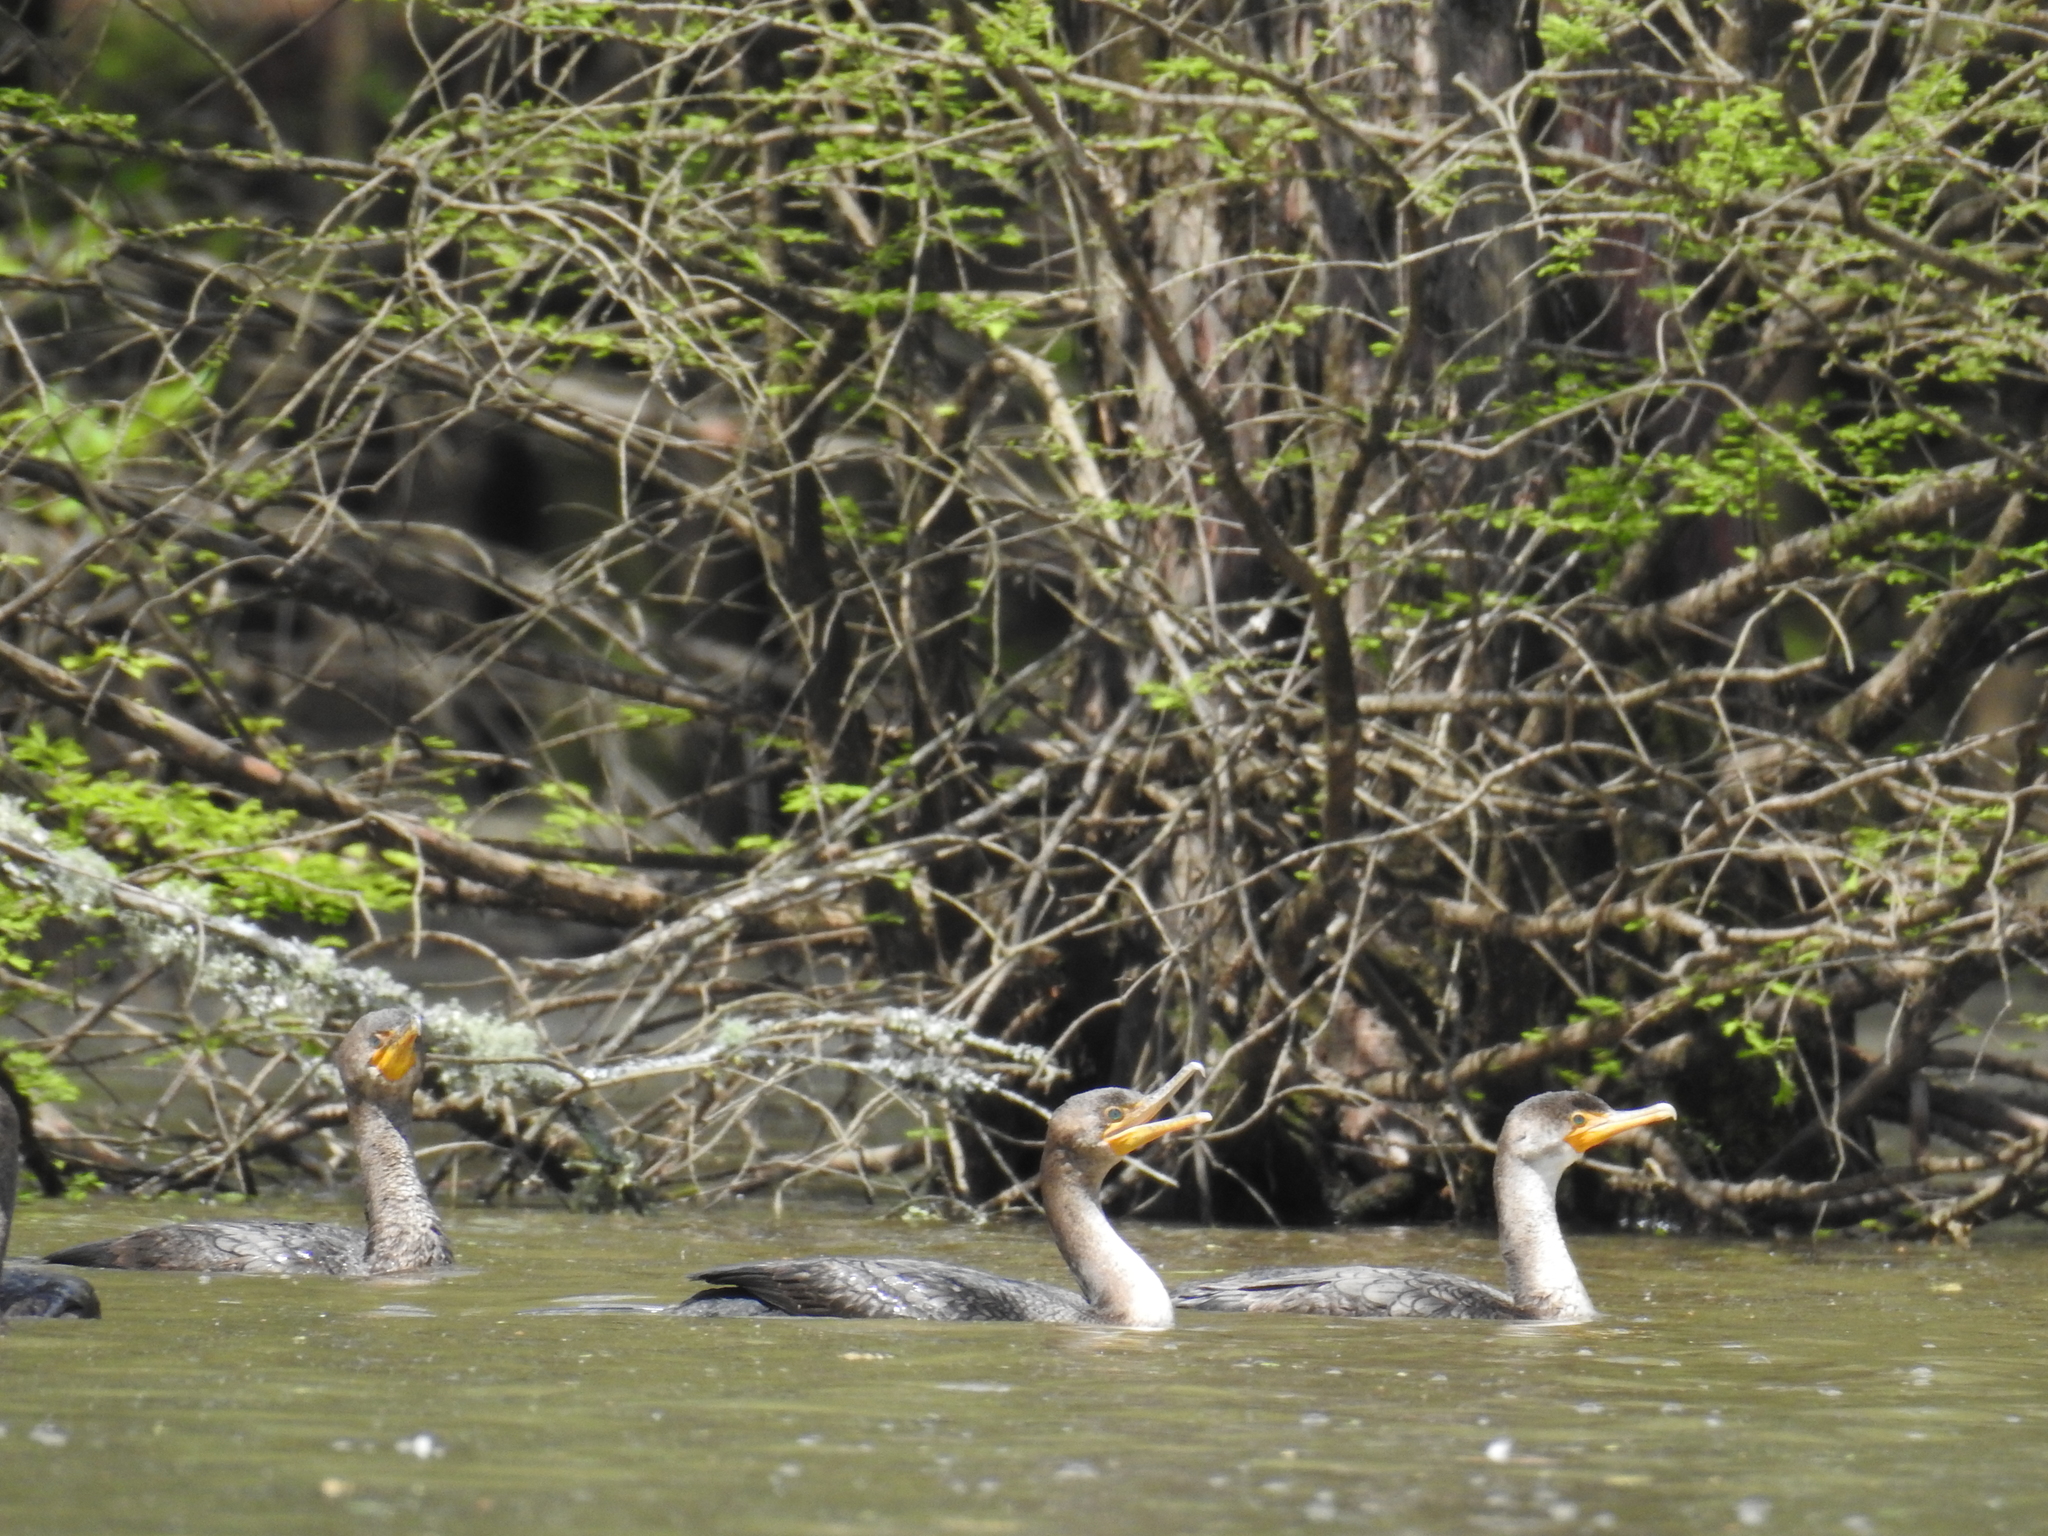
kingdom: Animalia
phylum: Chordata
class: Aves
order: Suliformes
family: Phalacrocoracidae
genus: Phalacrocorax
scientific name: Phalacrocorax auritus
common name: Double-crested cormorant
